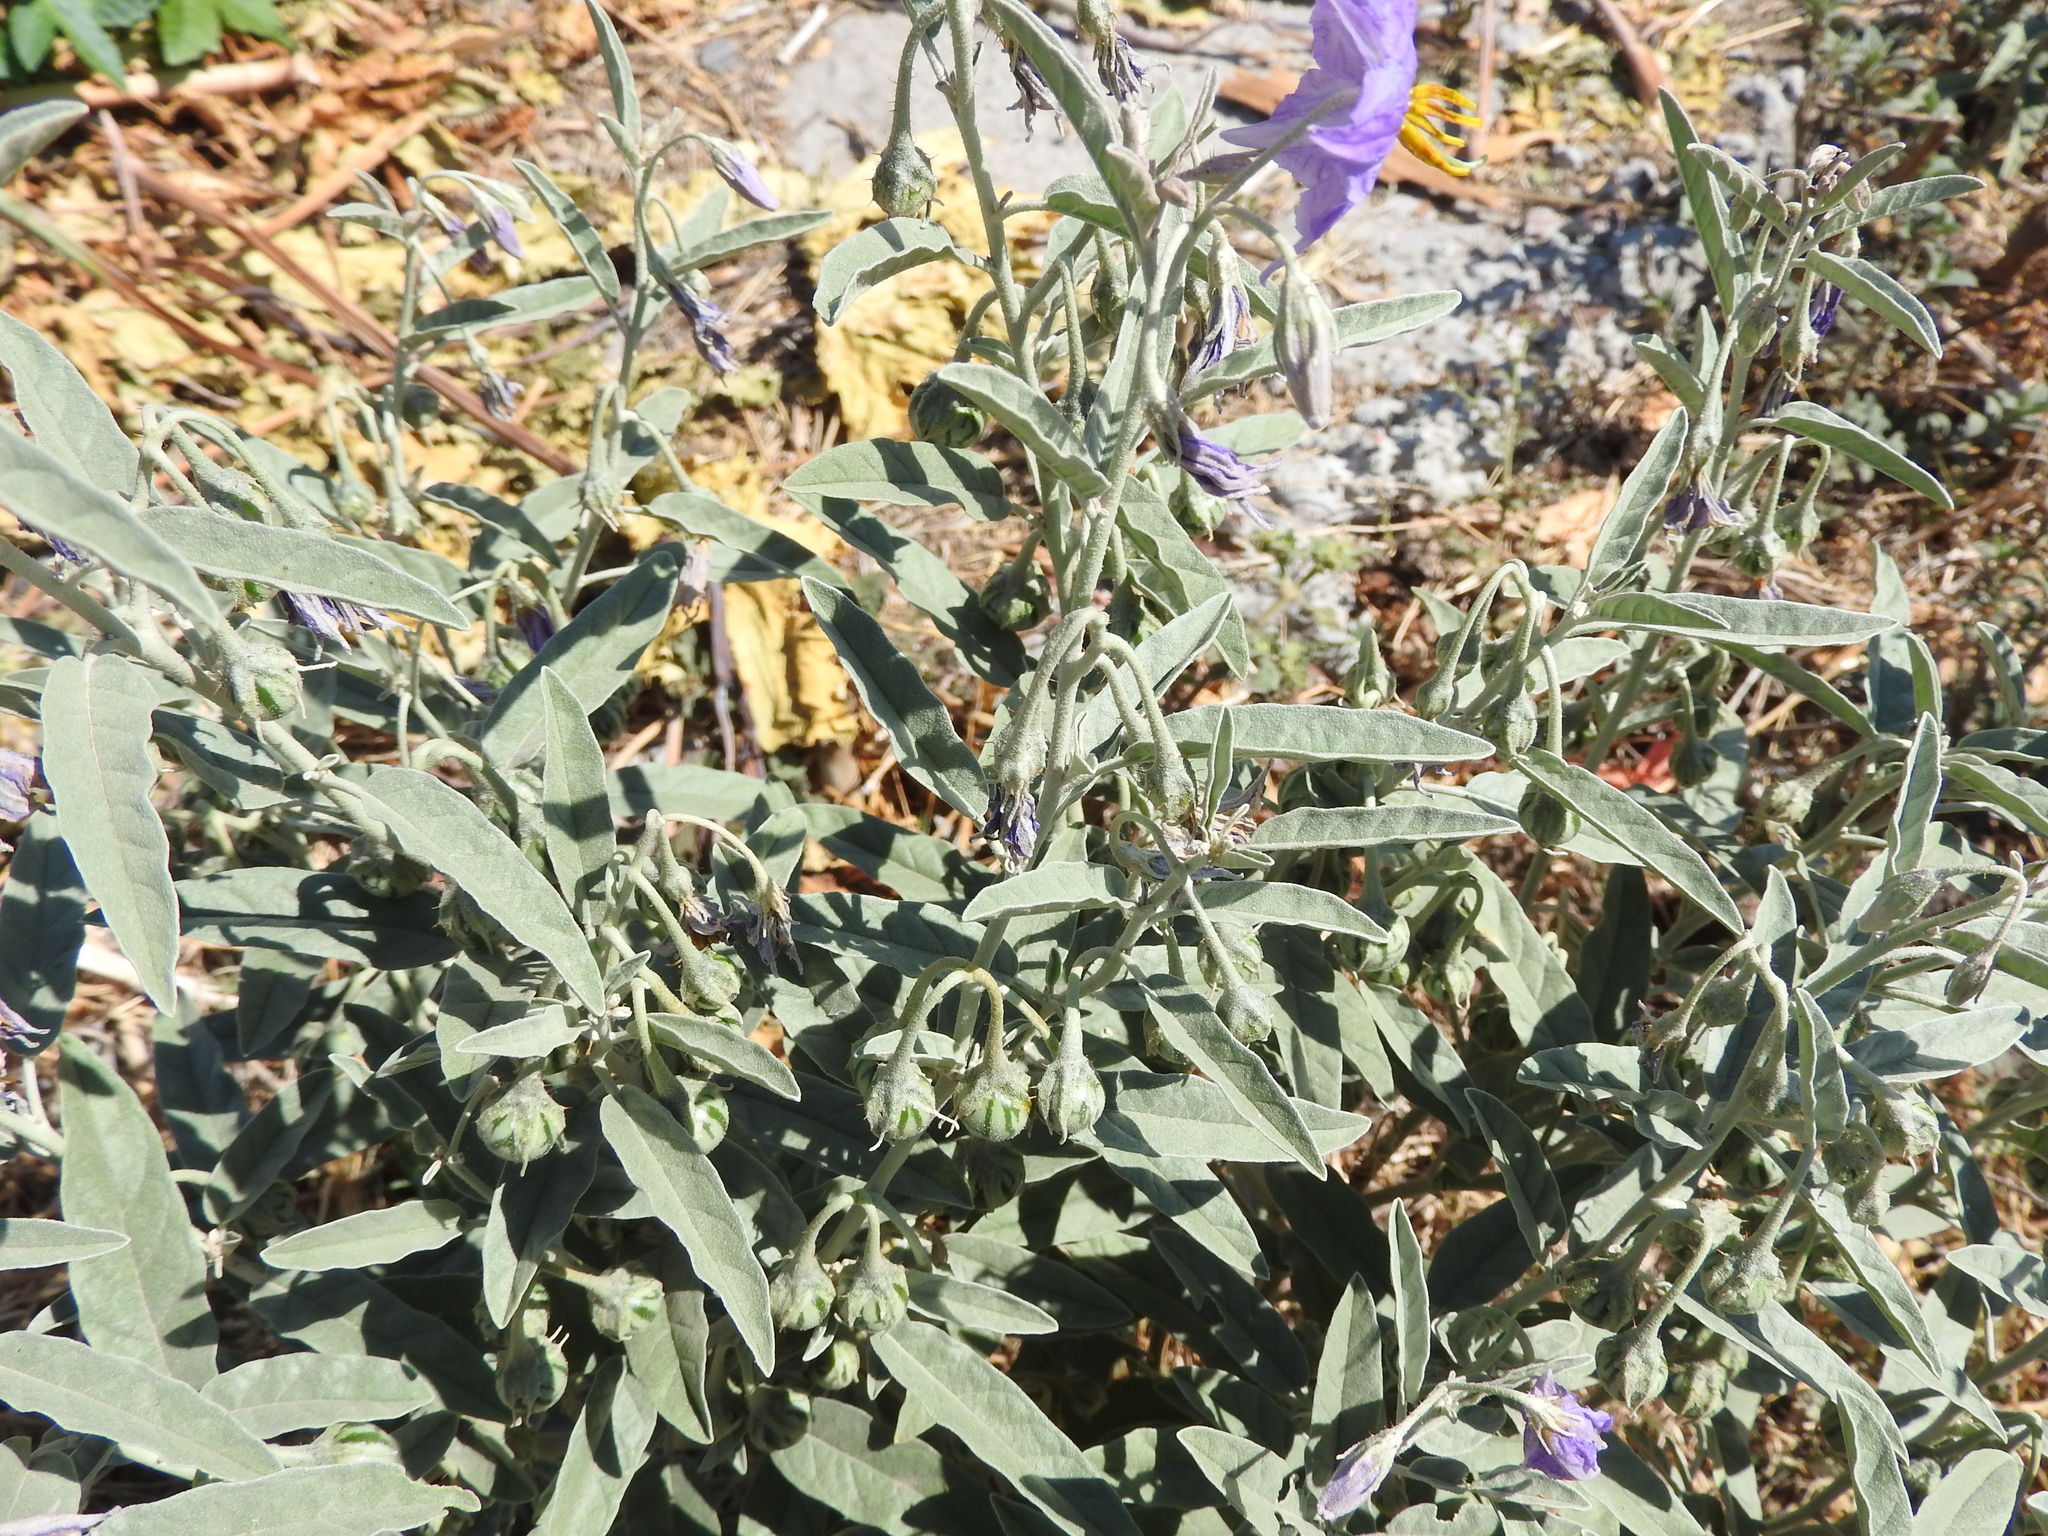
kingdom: Plantae
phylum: Tracheophyta
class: Magnoliopsida
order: Solanales
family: Solanaceae
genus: Solanum
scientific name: Solanum elaeagnifolium
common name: Silverleaf nightshade
